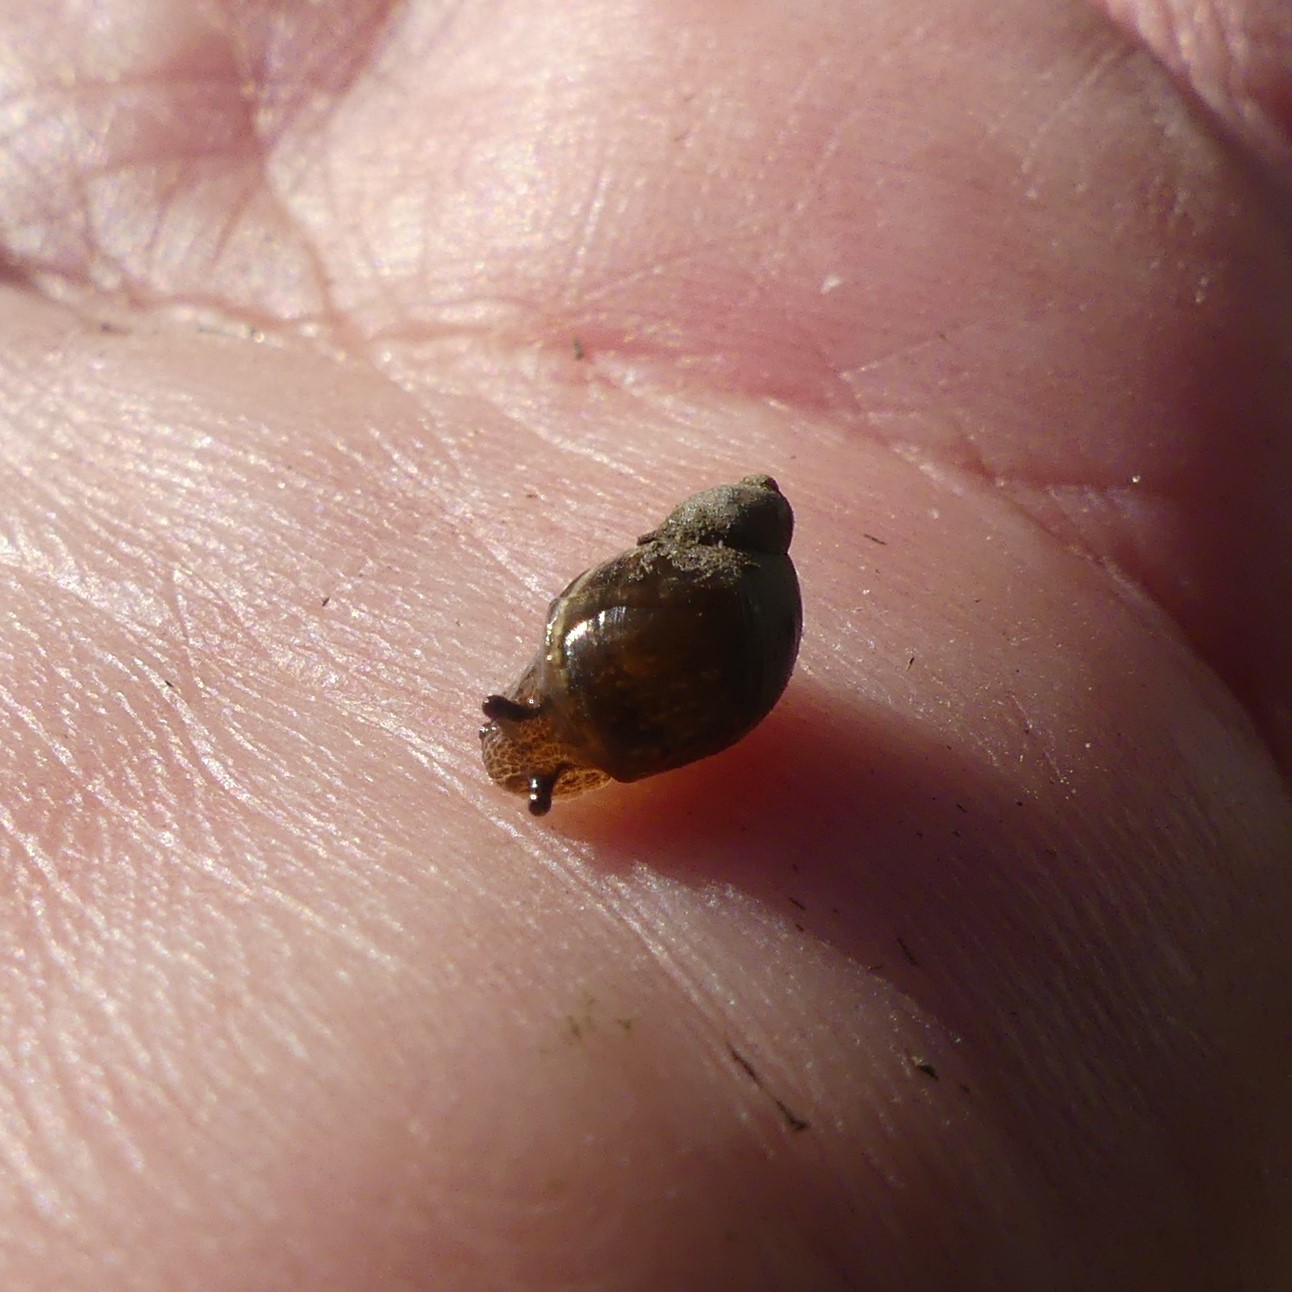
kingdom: Animalia
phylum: Mollusca
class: Gastropoda
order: Ellobiida
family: Ellobiidae
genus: Melampus
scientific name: Melampus bidentatus
